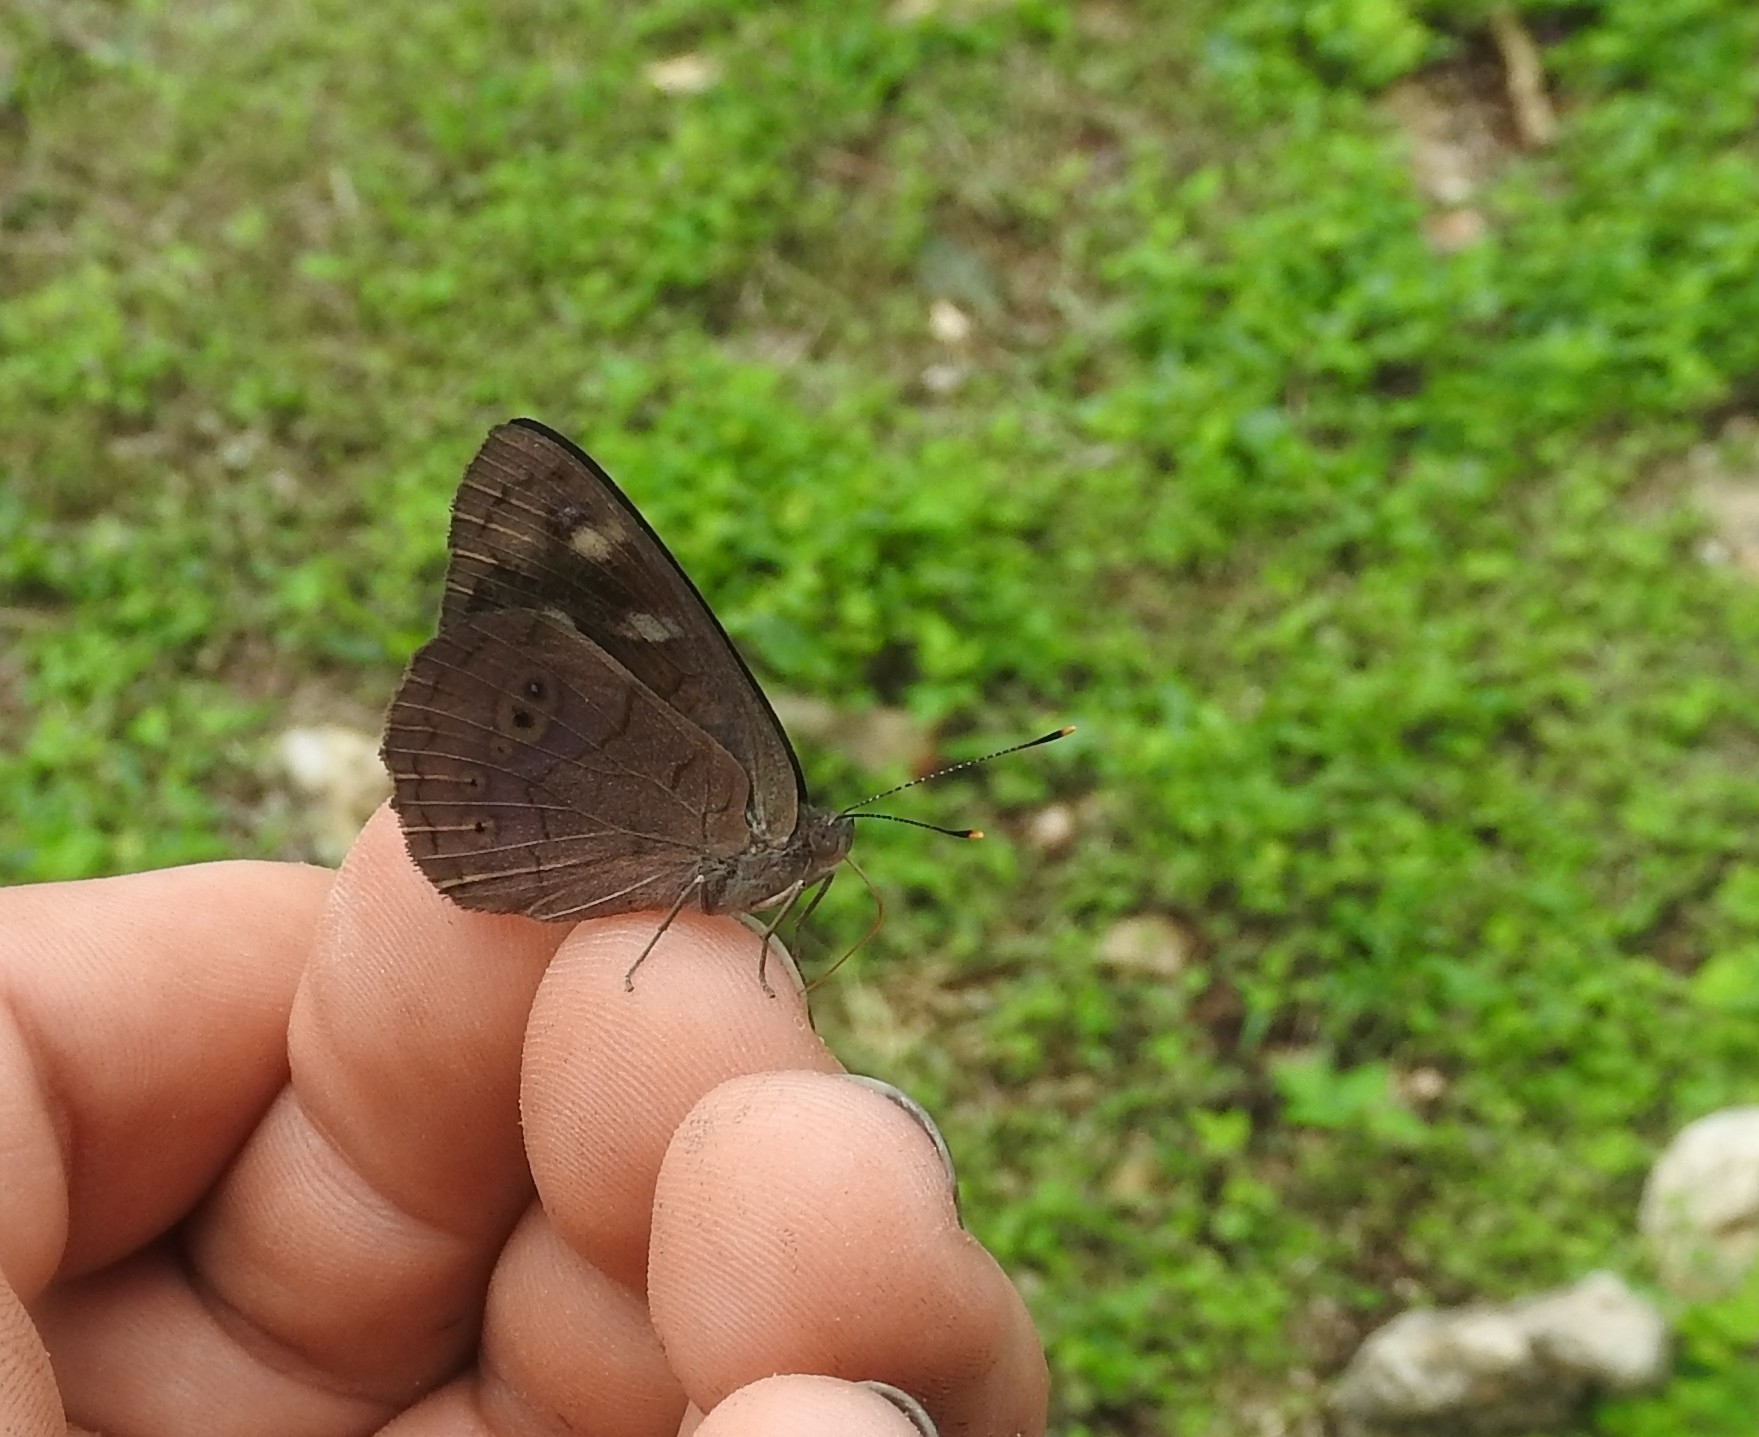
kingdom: Animalia
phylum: Arthropoda
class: Insecta
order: Lepidoptera
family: Nymphalidae
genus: Eunica
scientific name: Eunica monima
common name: Dingy purplewing
